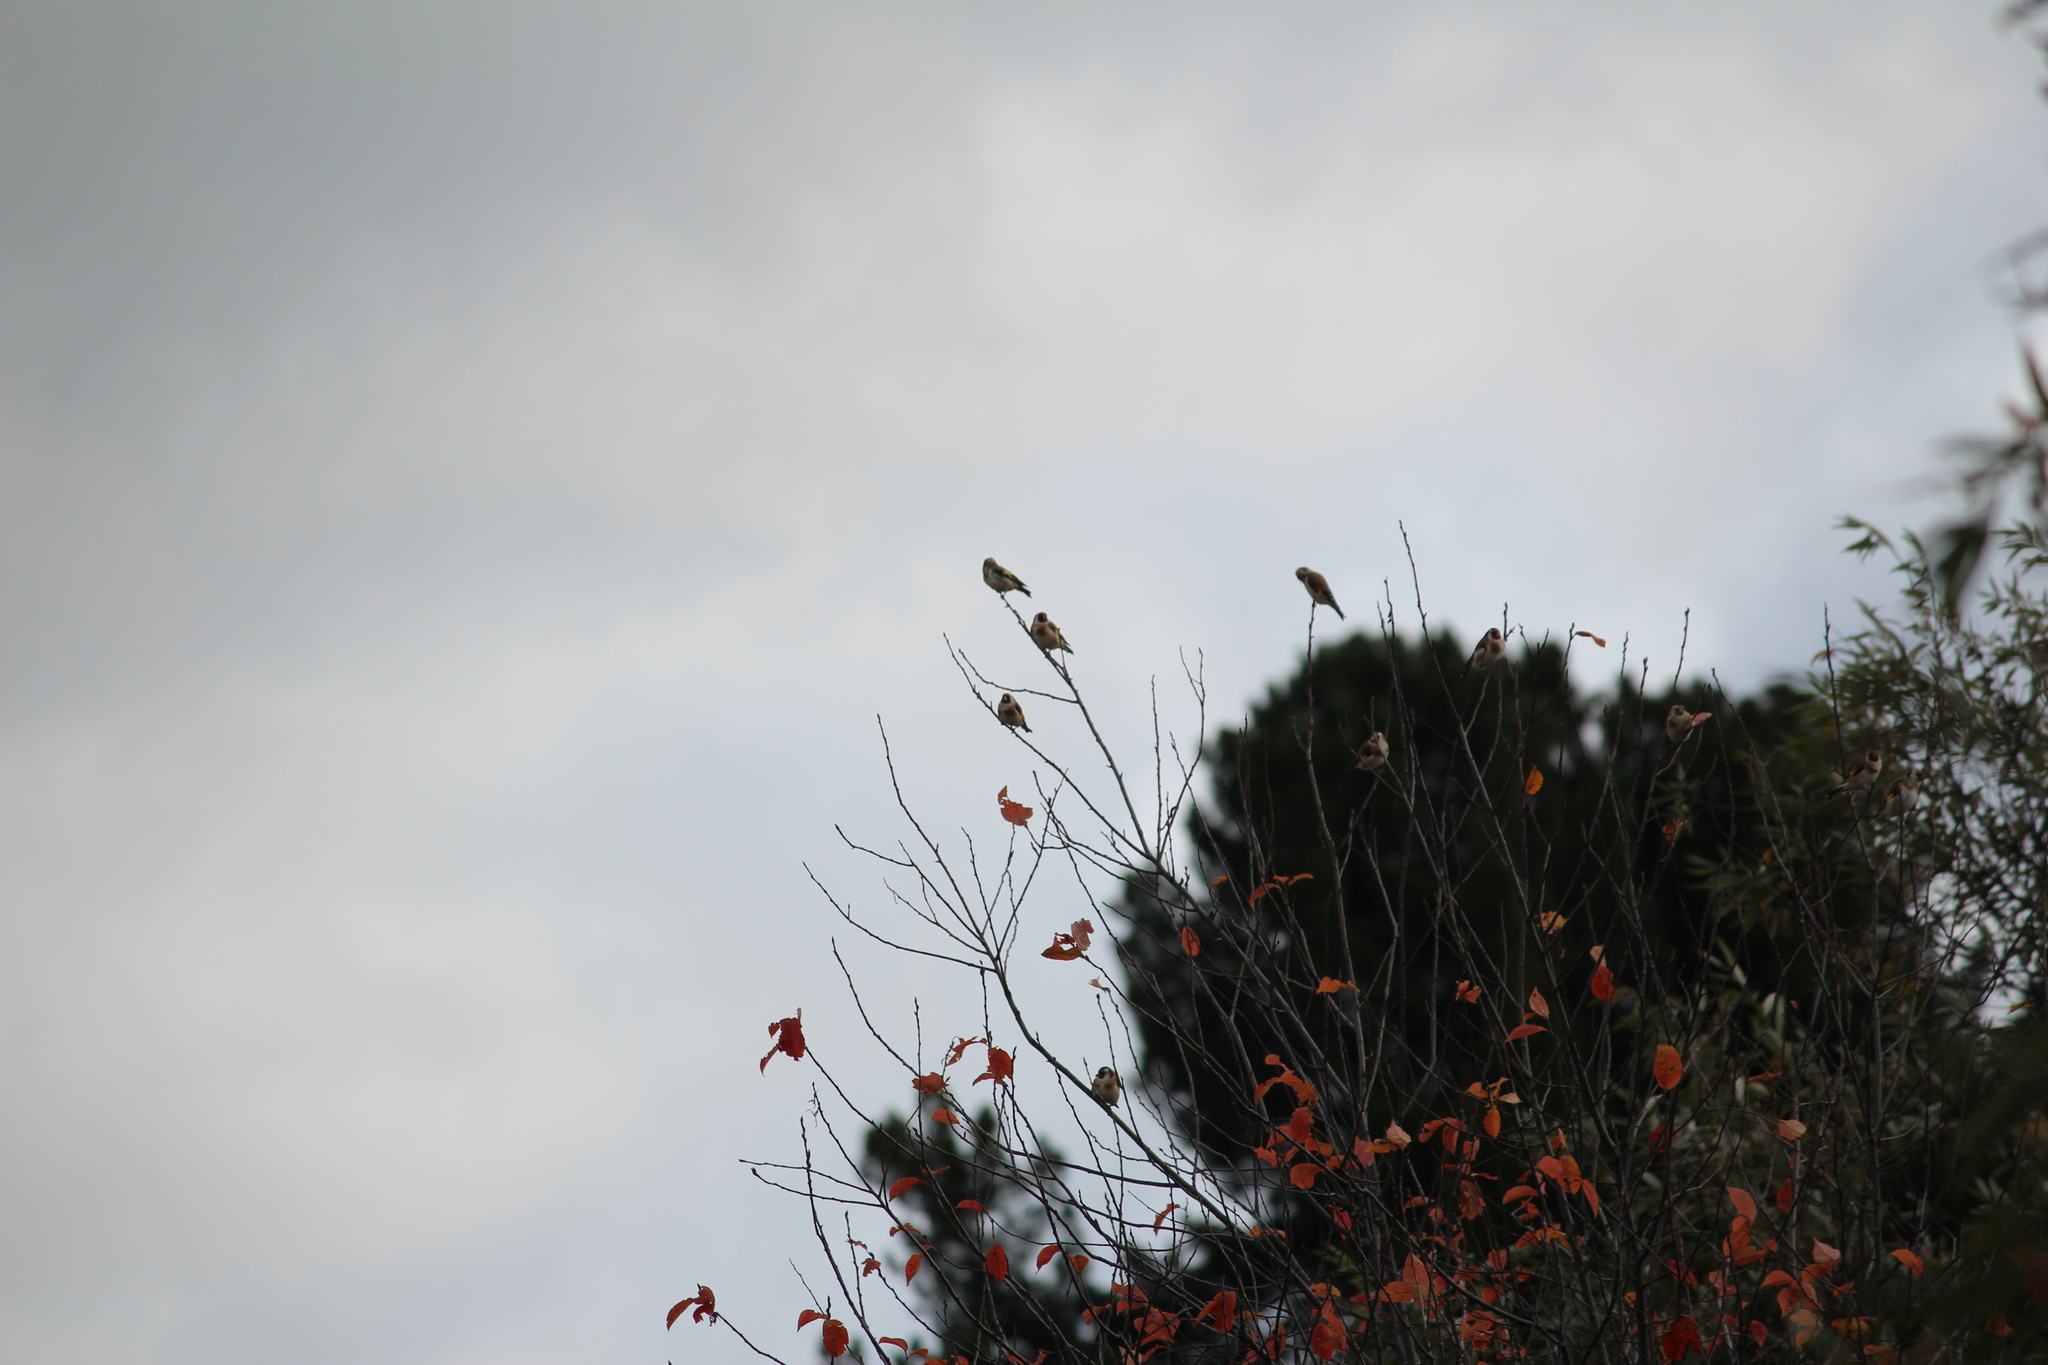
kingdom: Animalia
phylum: Chordata
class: Aves
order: Passeriformes
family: Fringillidae
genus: Carduelis
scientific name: Carduelis carduelis
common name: European goldfinch
